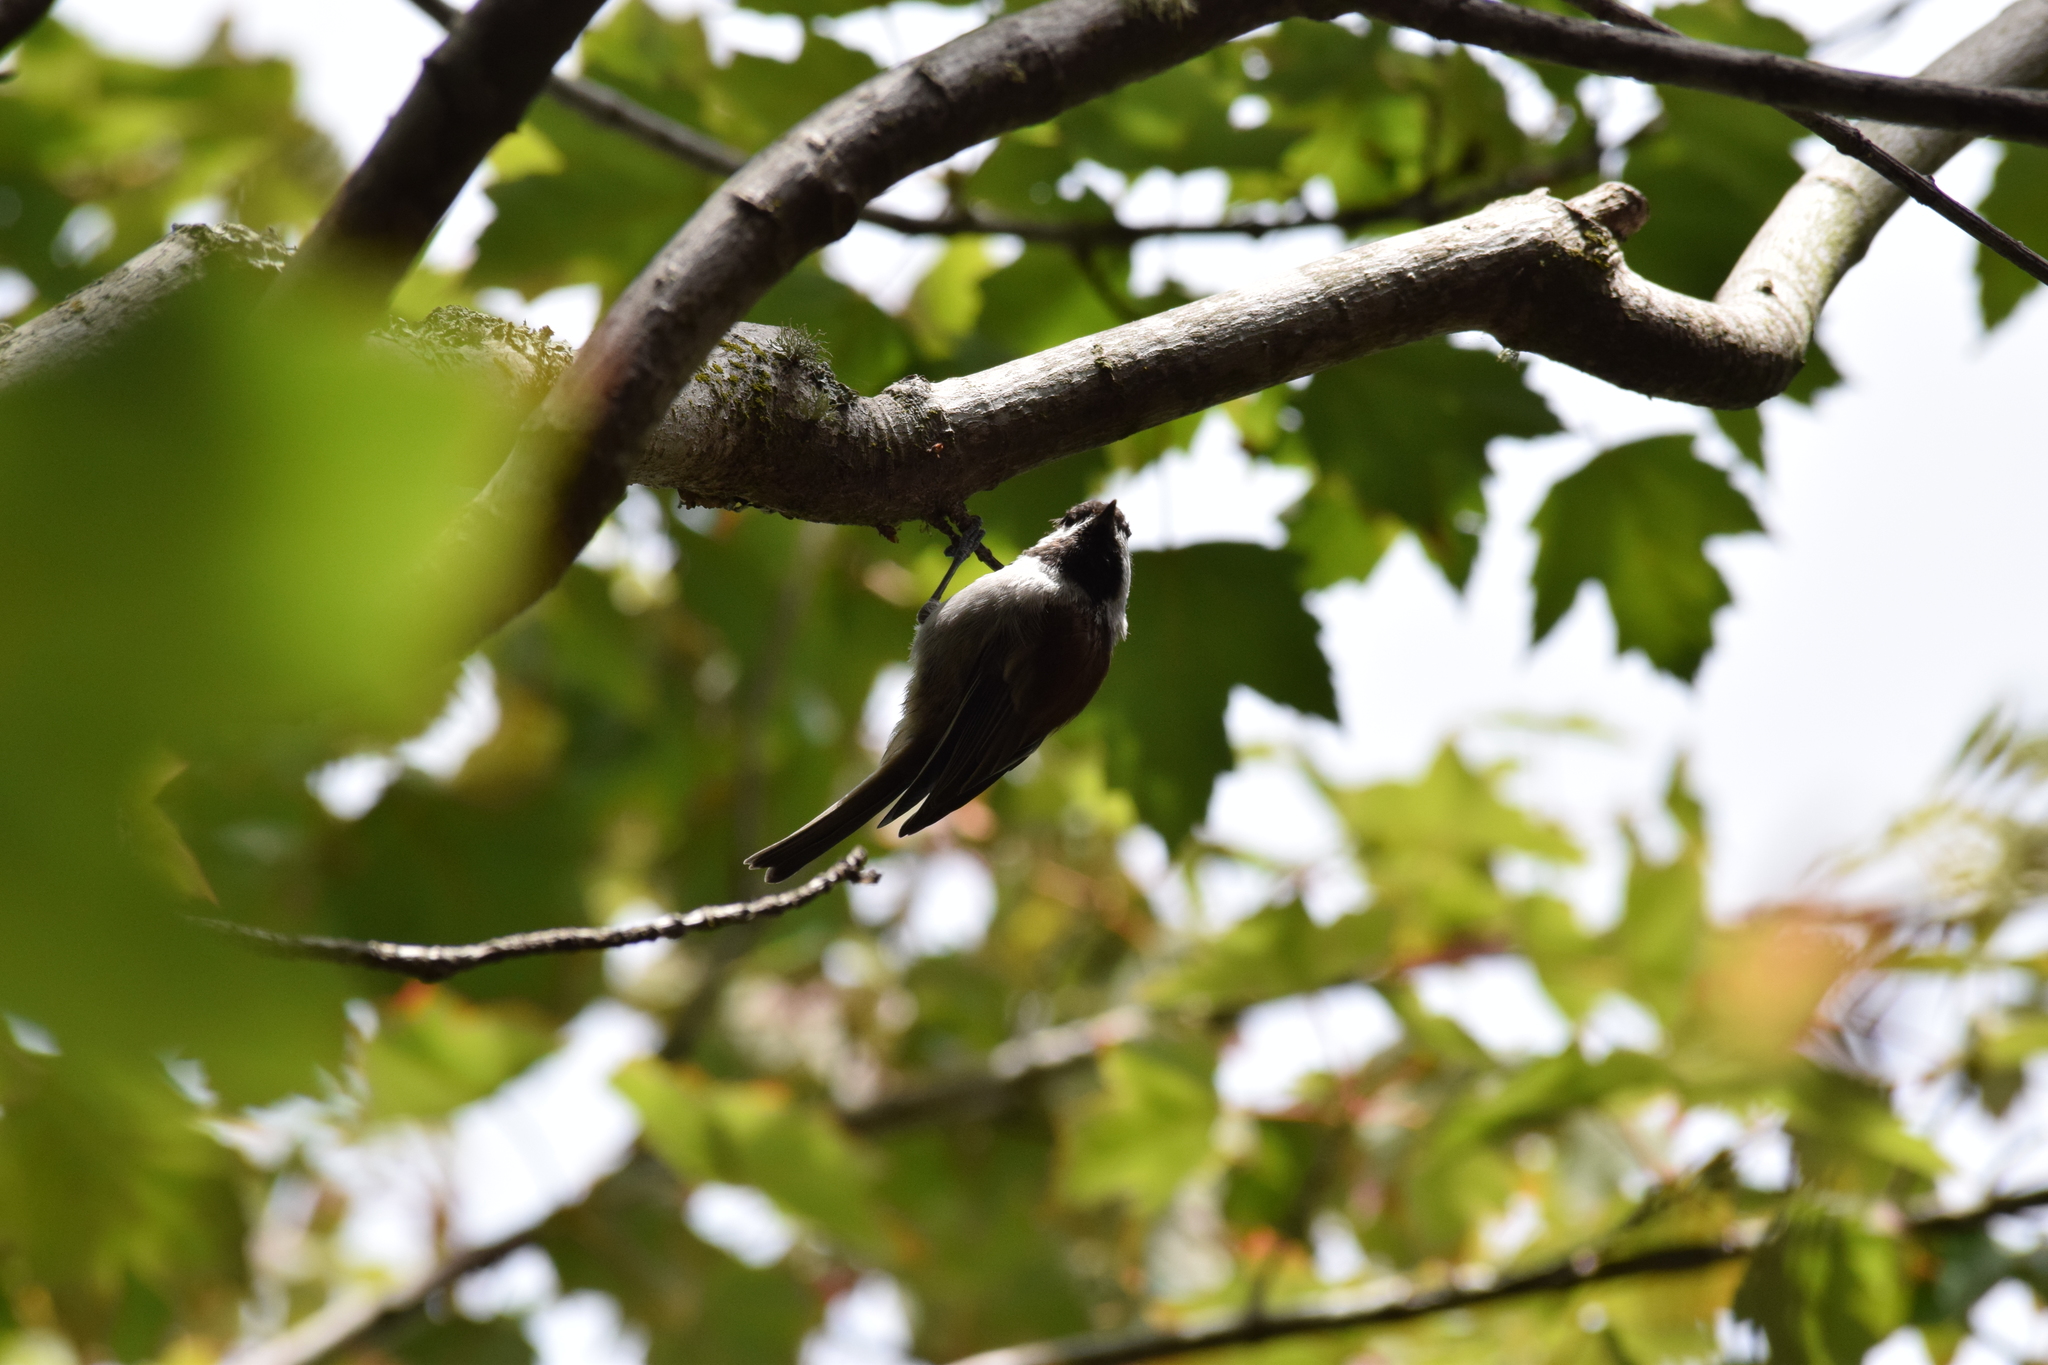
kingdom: Animalia
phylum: Chordata
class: Aves
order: Passeriformes
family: Paridae
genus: Poecile
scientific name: Poecile rufescens
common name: Chestnut-backed chickadee
